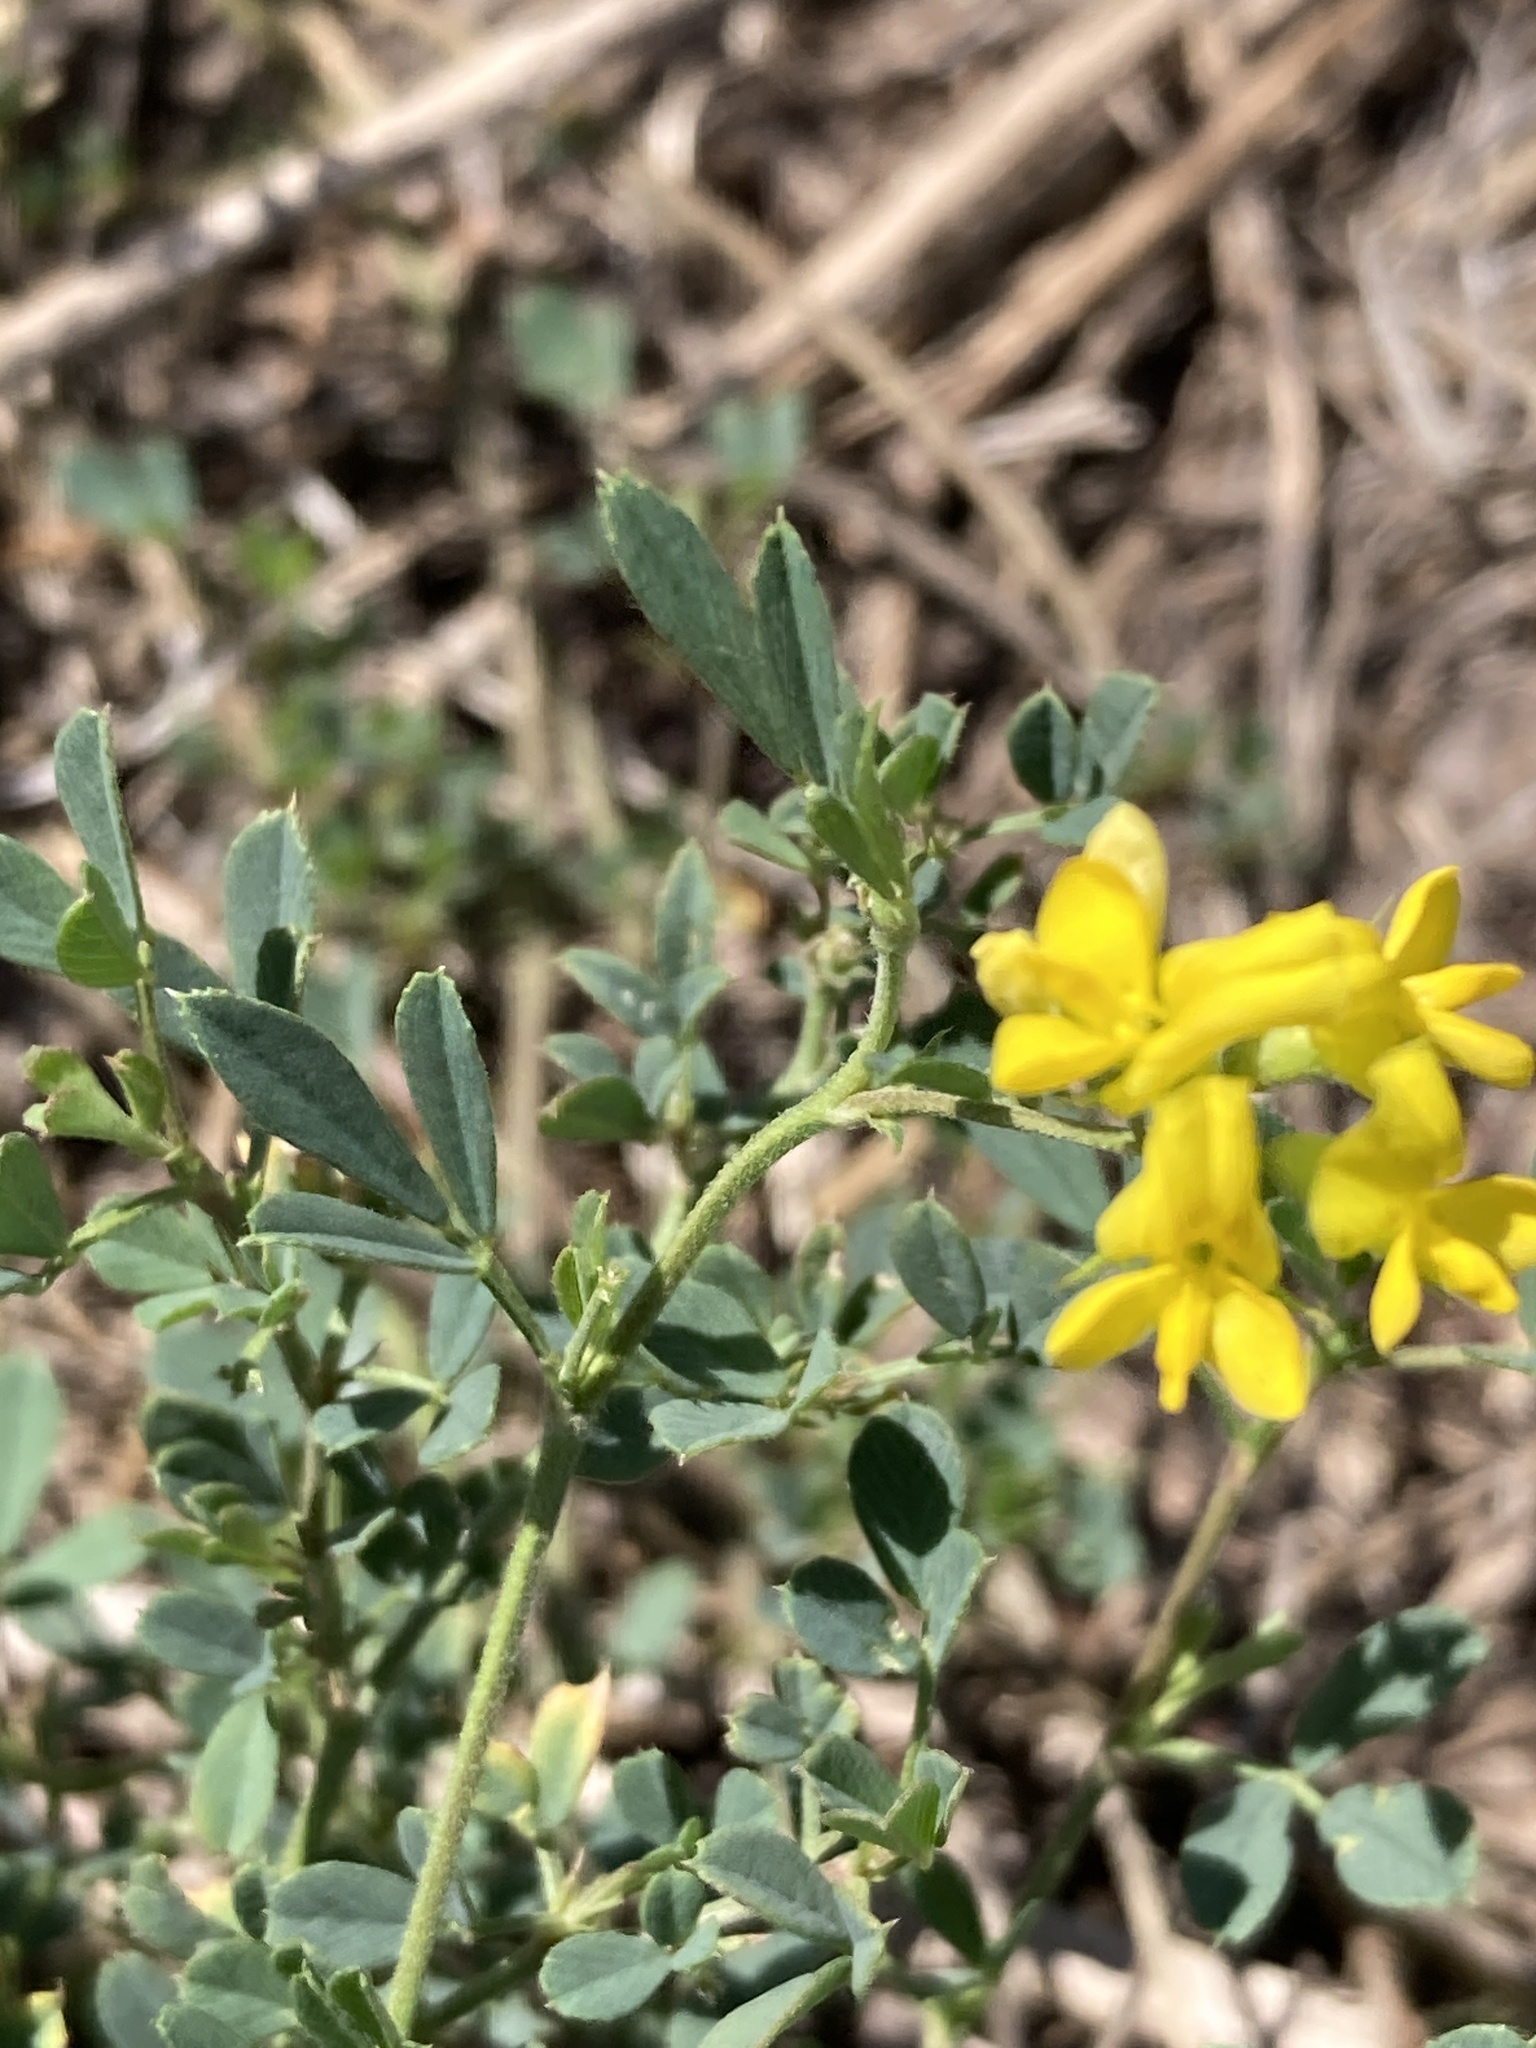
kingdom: Plantae
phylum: Tracheophyta
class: Magnoliopsida
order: Fabales
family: Fabaceae
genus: Medicago
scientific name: Medicago falcata
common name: Sickle medick
